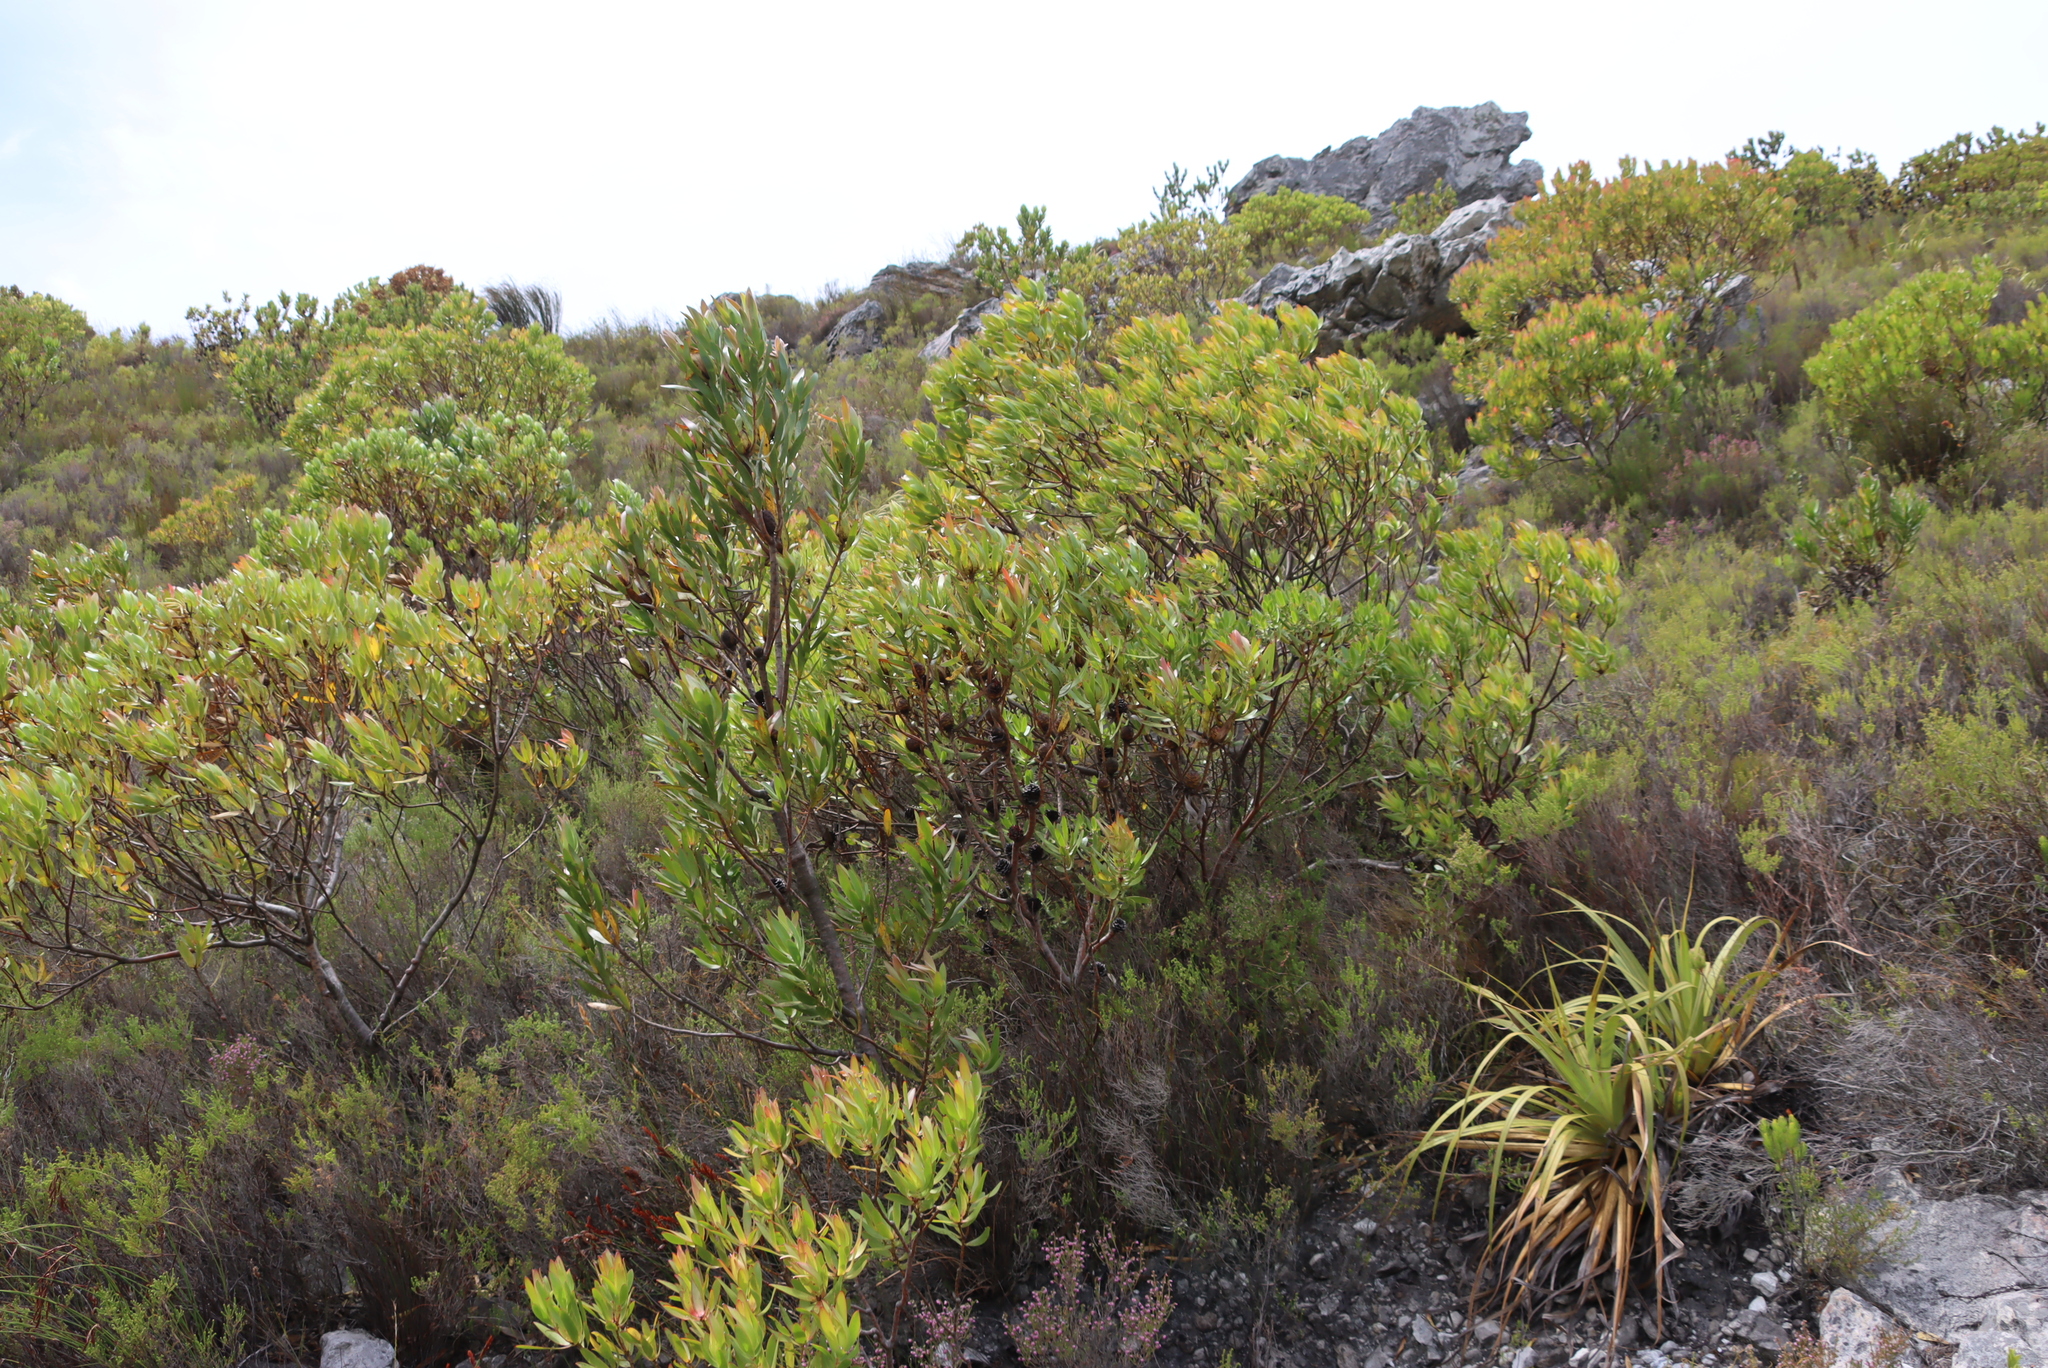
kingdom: Plantae
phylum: Tracheophyta
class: Liliopsida
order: Poales
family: Cyperaceae
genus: Tetraria
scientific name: Tetraria thermalis
